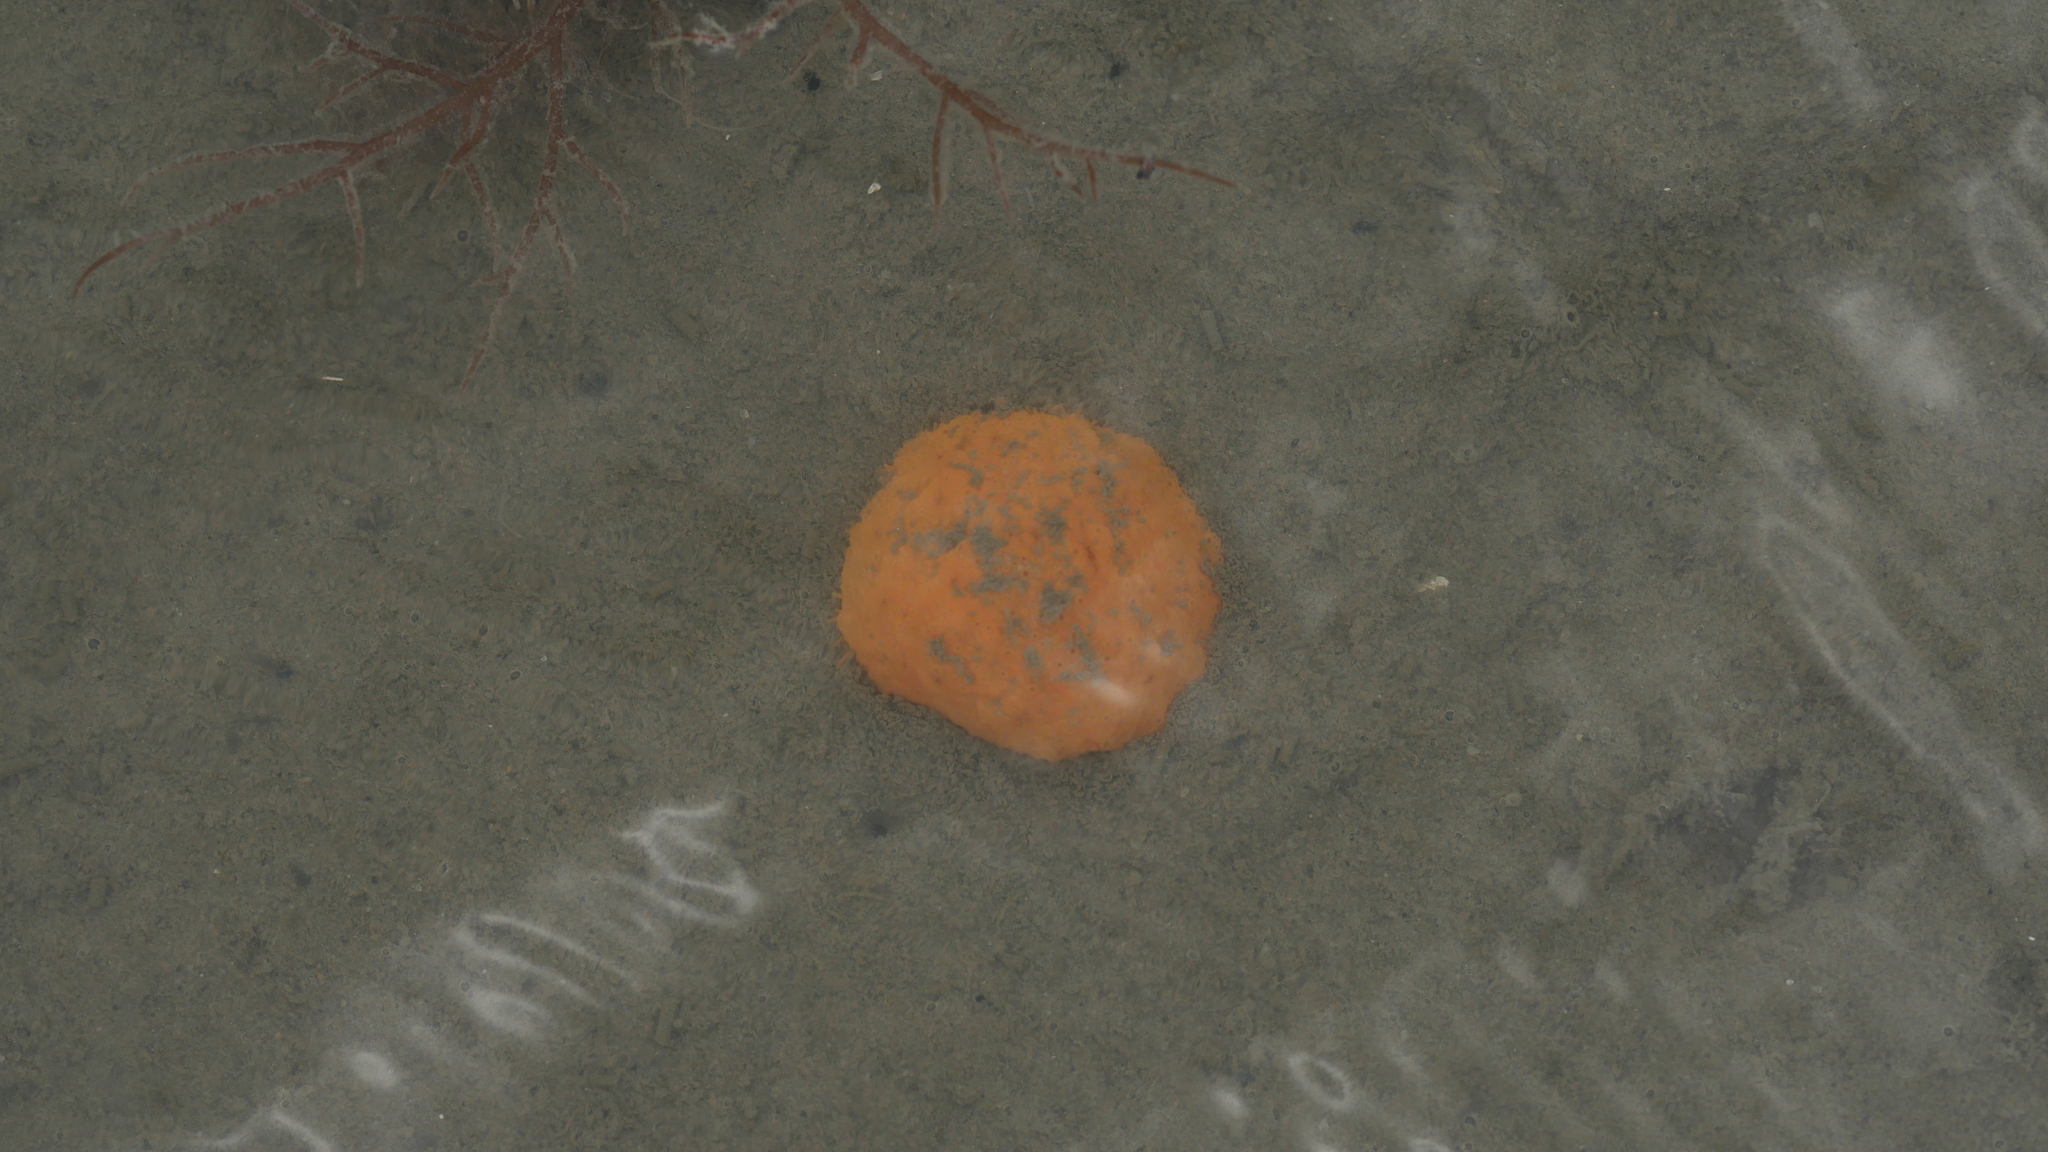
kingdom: Animalia
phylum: Chordata
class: Ascidiacea
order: Aplousobranchia
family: Polyclinidae
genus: Aplidium
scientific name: Aplidium stellatum
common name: Atlantic sea pork
